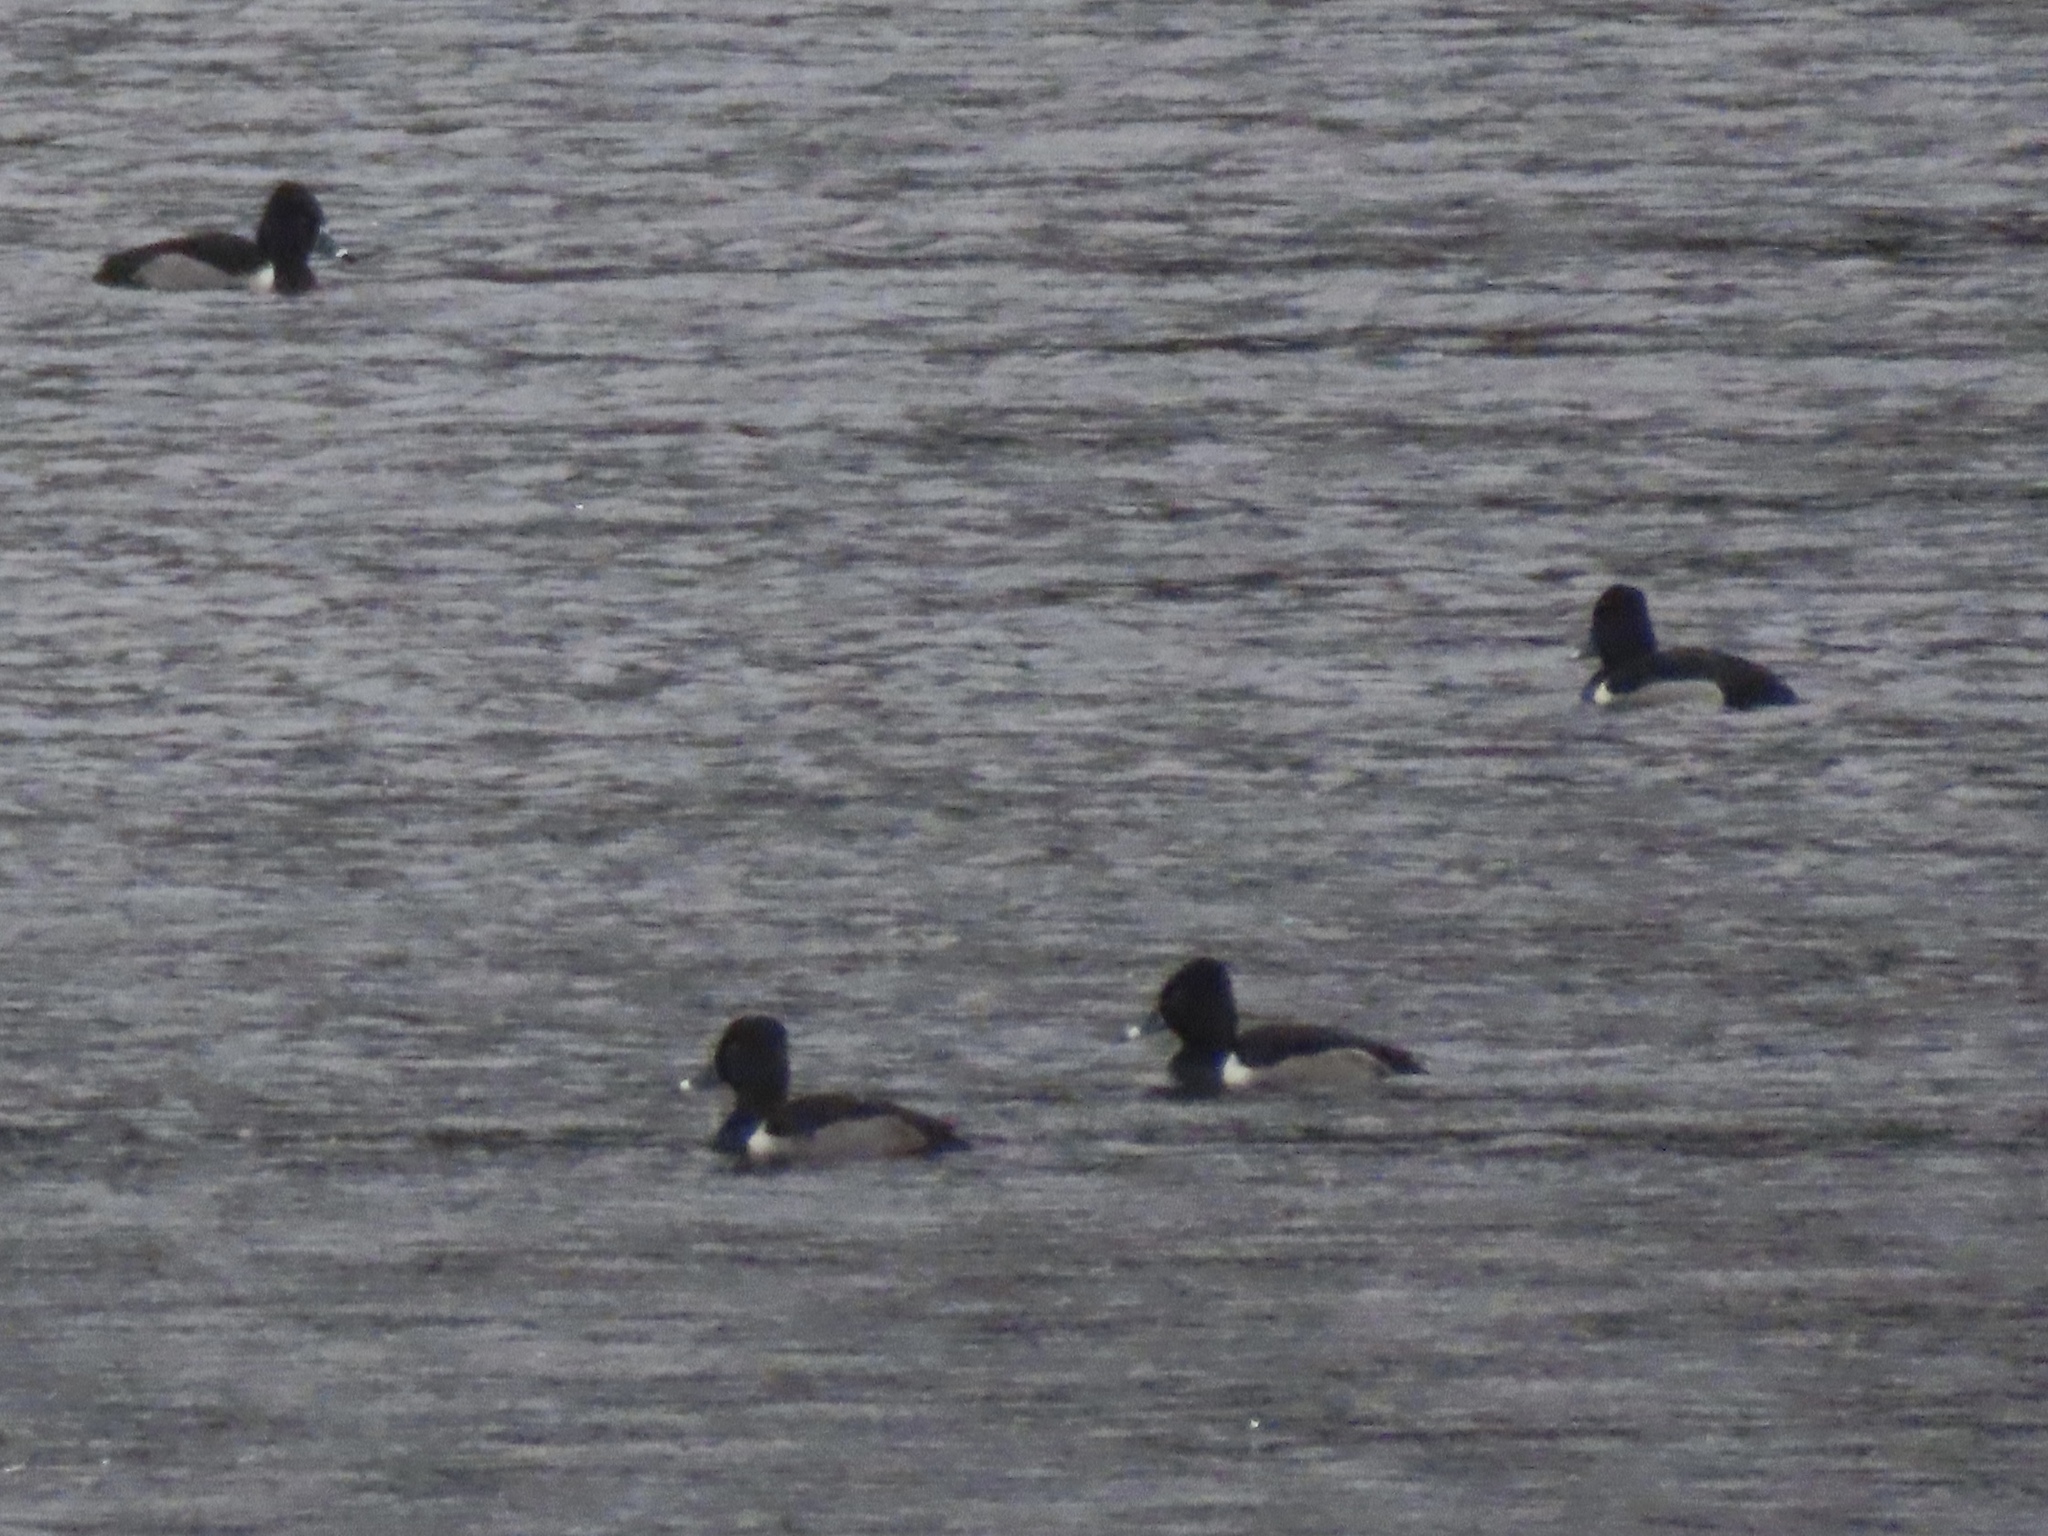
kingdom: Animalia
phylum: Chordata
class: Aves
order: Anseriformes
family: Anatidae
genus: Aythya
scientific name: Aythya collaris
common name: Ring-necked duck
